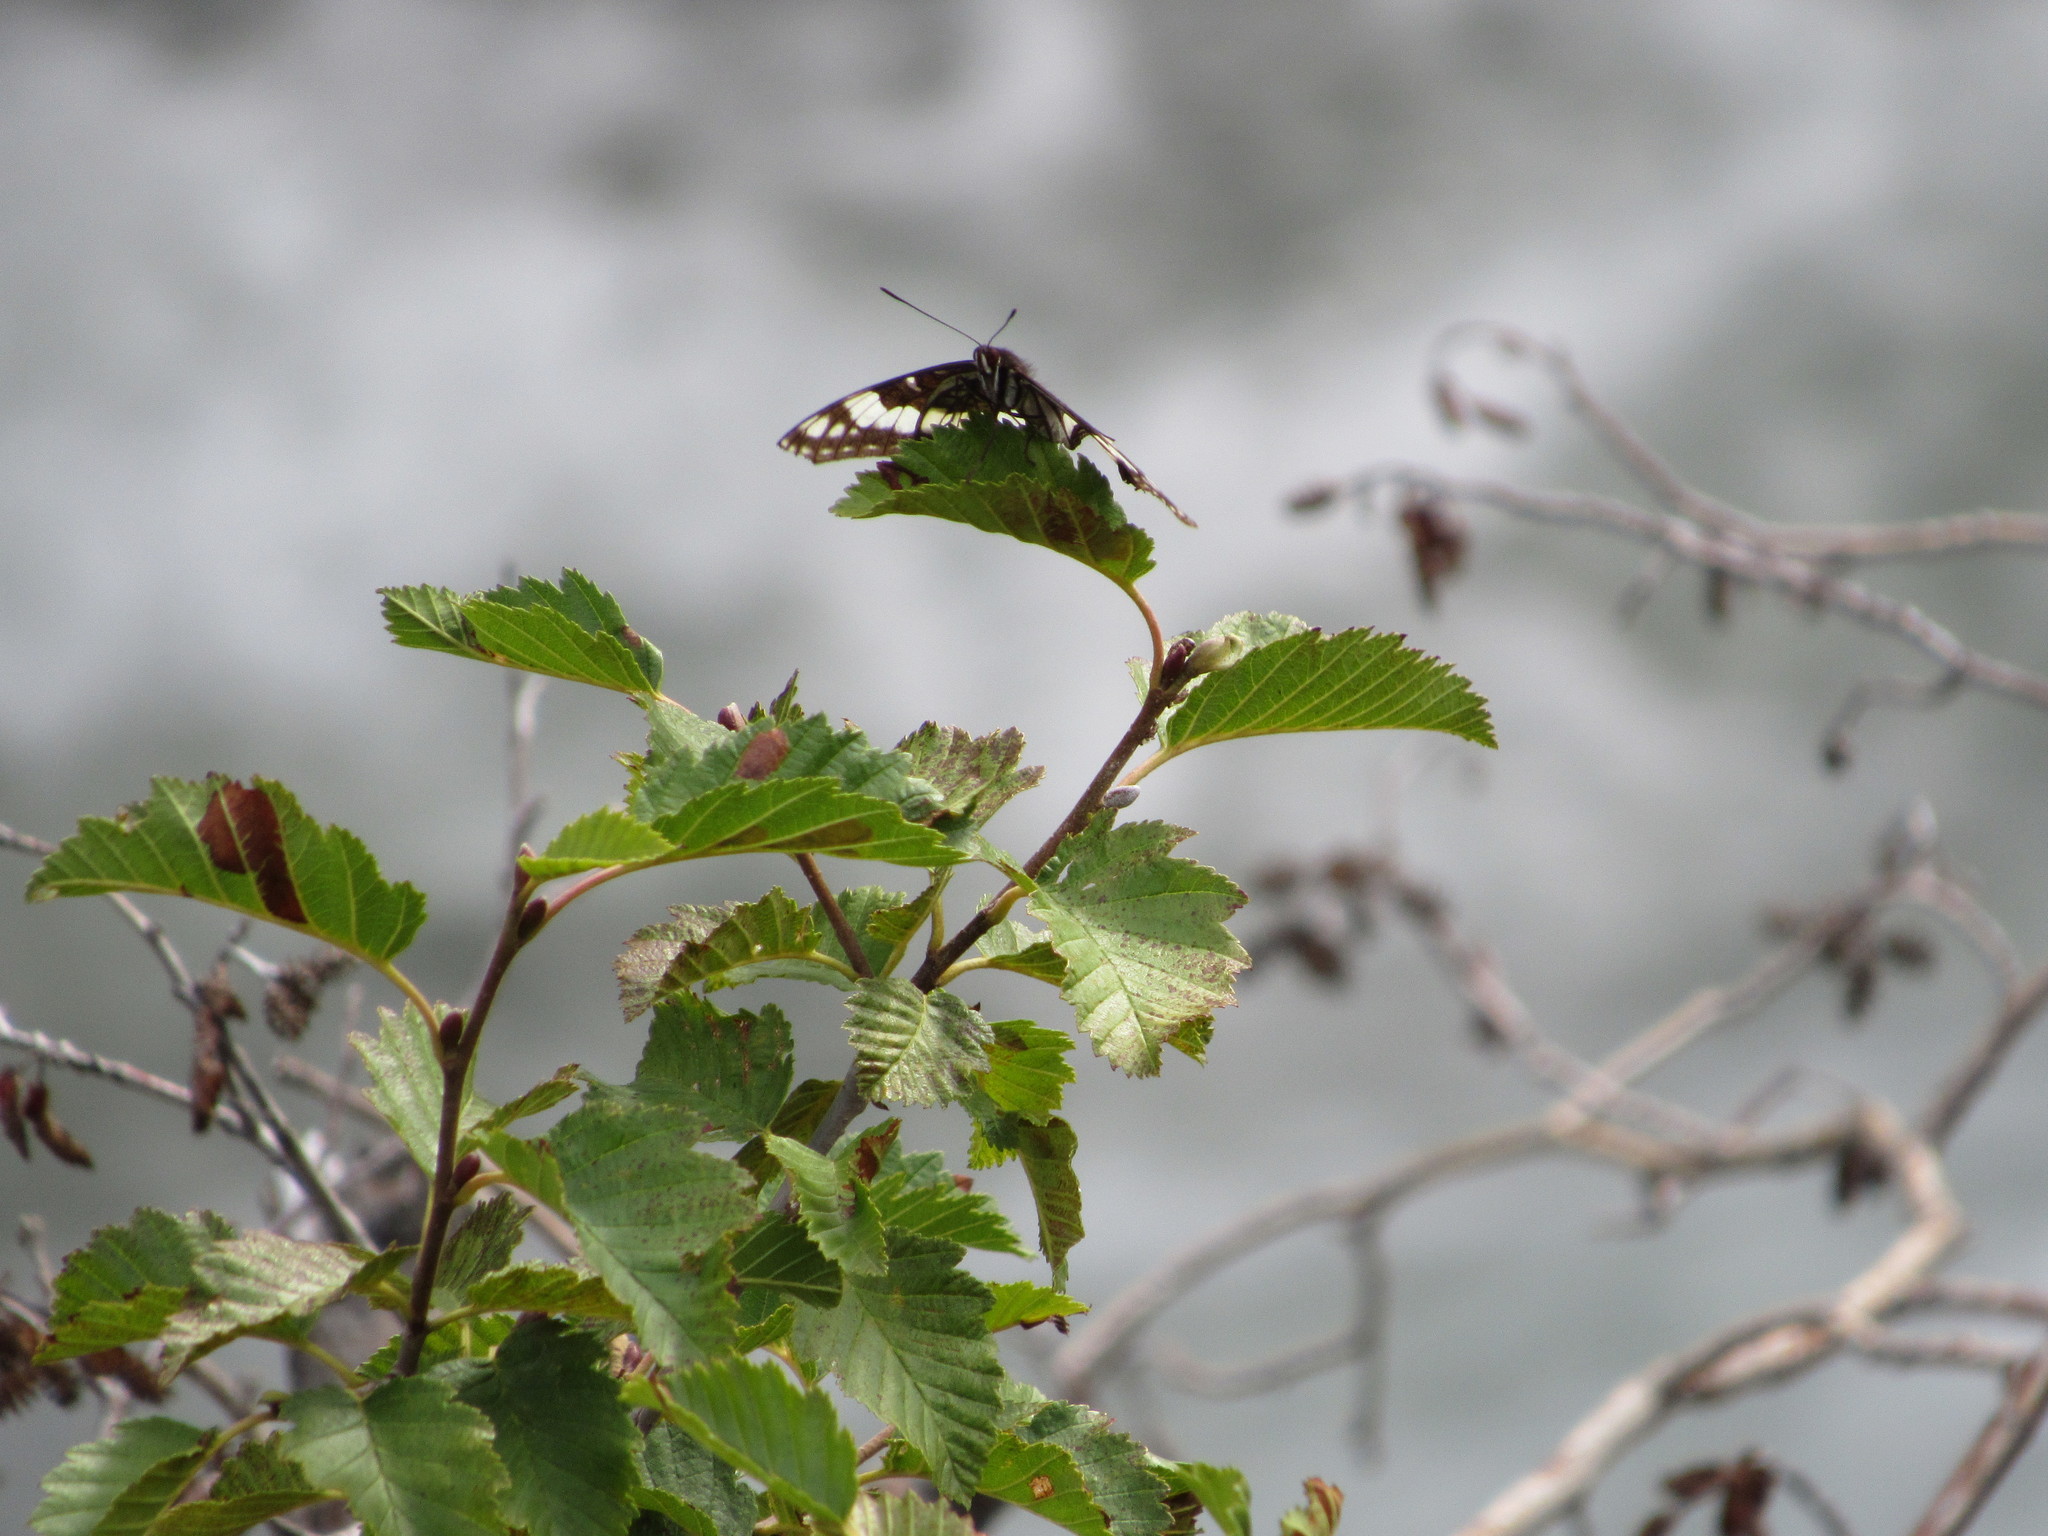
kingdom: Animalia
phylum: Arthropoda
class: Insecta
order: Lepidoptera
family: Nymphalidae
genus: Limenitis
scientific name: Limenitis weidemeyerii
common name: Weidemeyer's admiral
